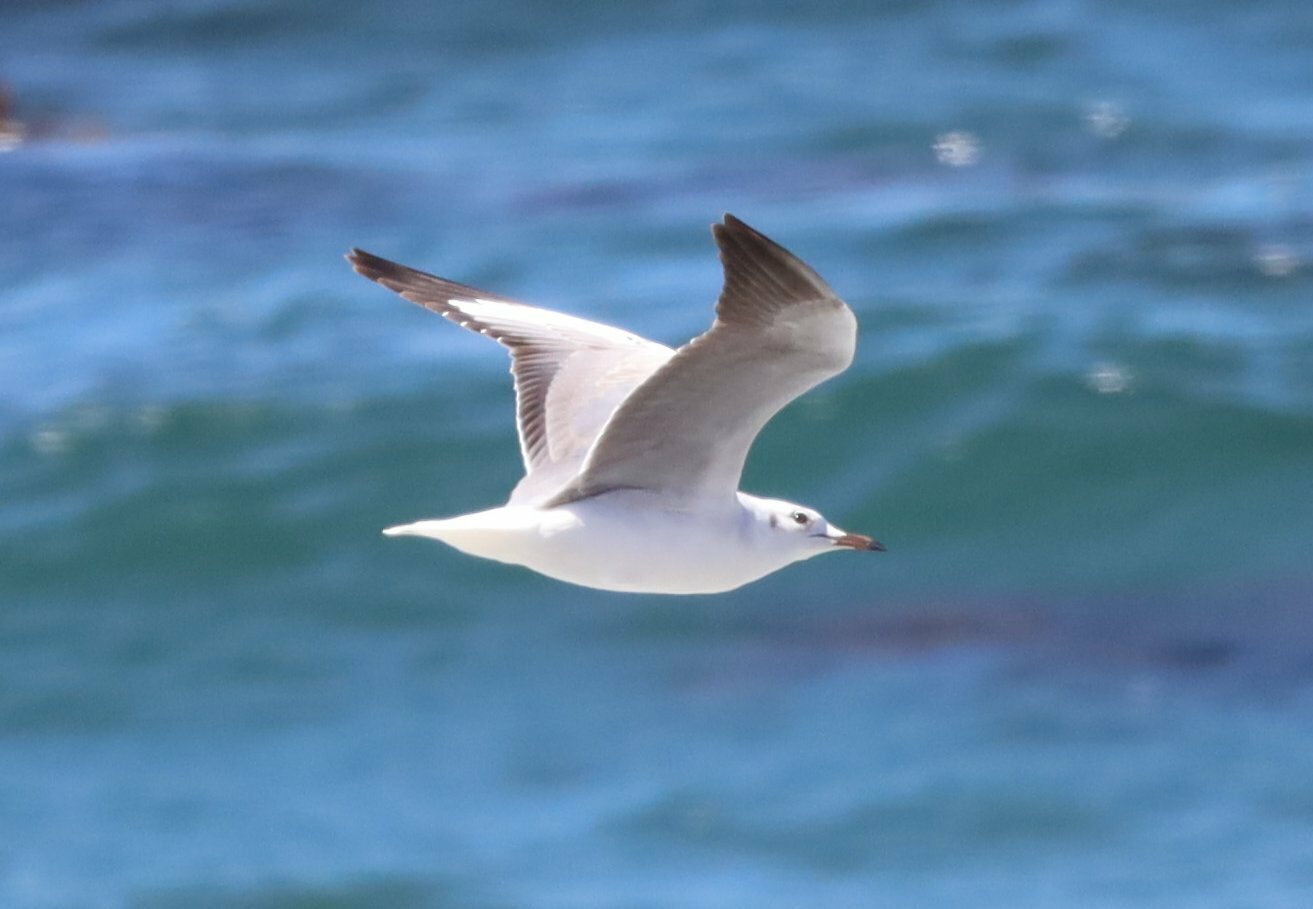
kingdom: Animalia
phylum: Chordata
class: Aves
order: Charadriiformes
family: Laridae
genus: Chroicocephalus
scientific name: Chroicocephalus cirrocephalus
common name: Grey-headed gull
